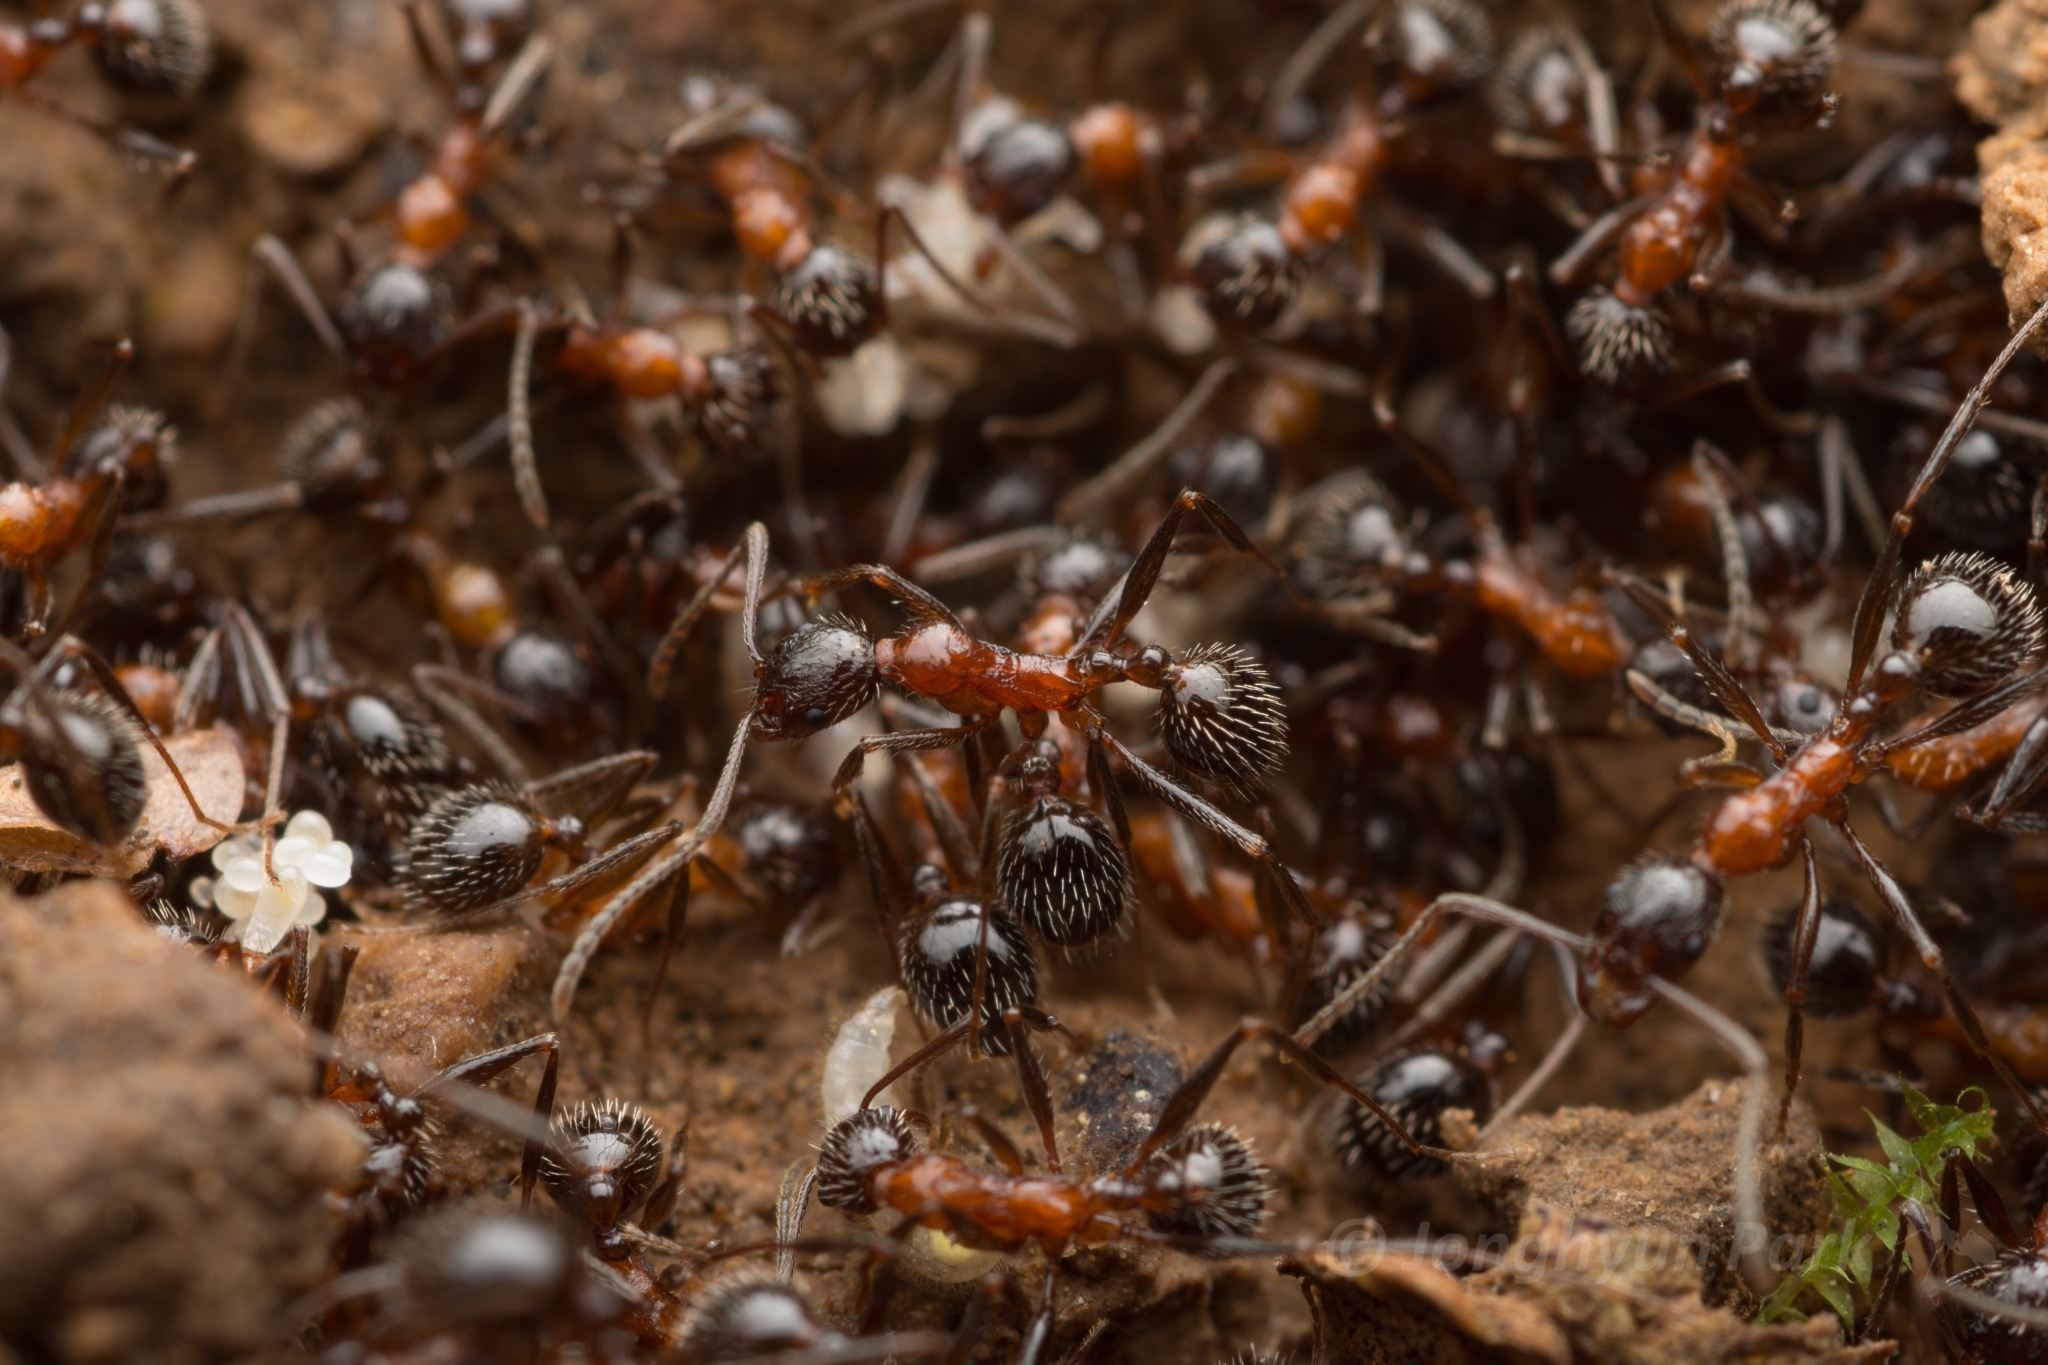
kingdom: Animalia
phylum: Arthropoda
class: Insecta
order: Hymenoptera
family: Formicidae
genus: Aphaenogaster
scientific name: Aphaenogaster lepida
